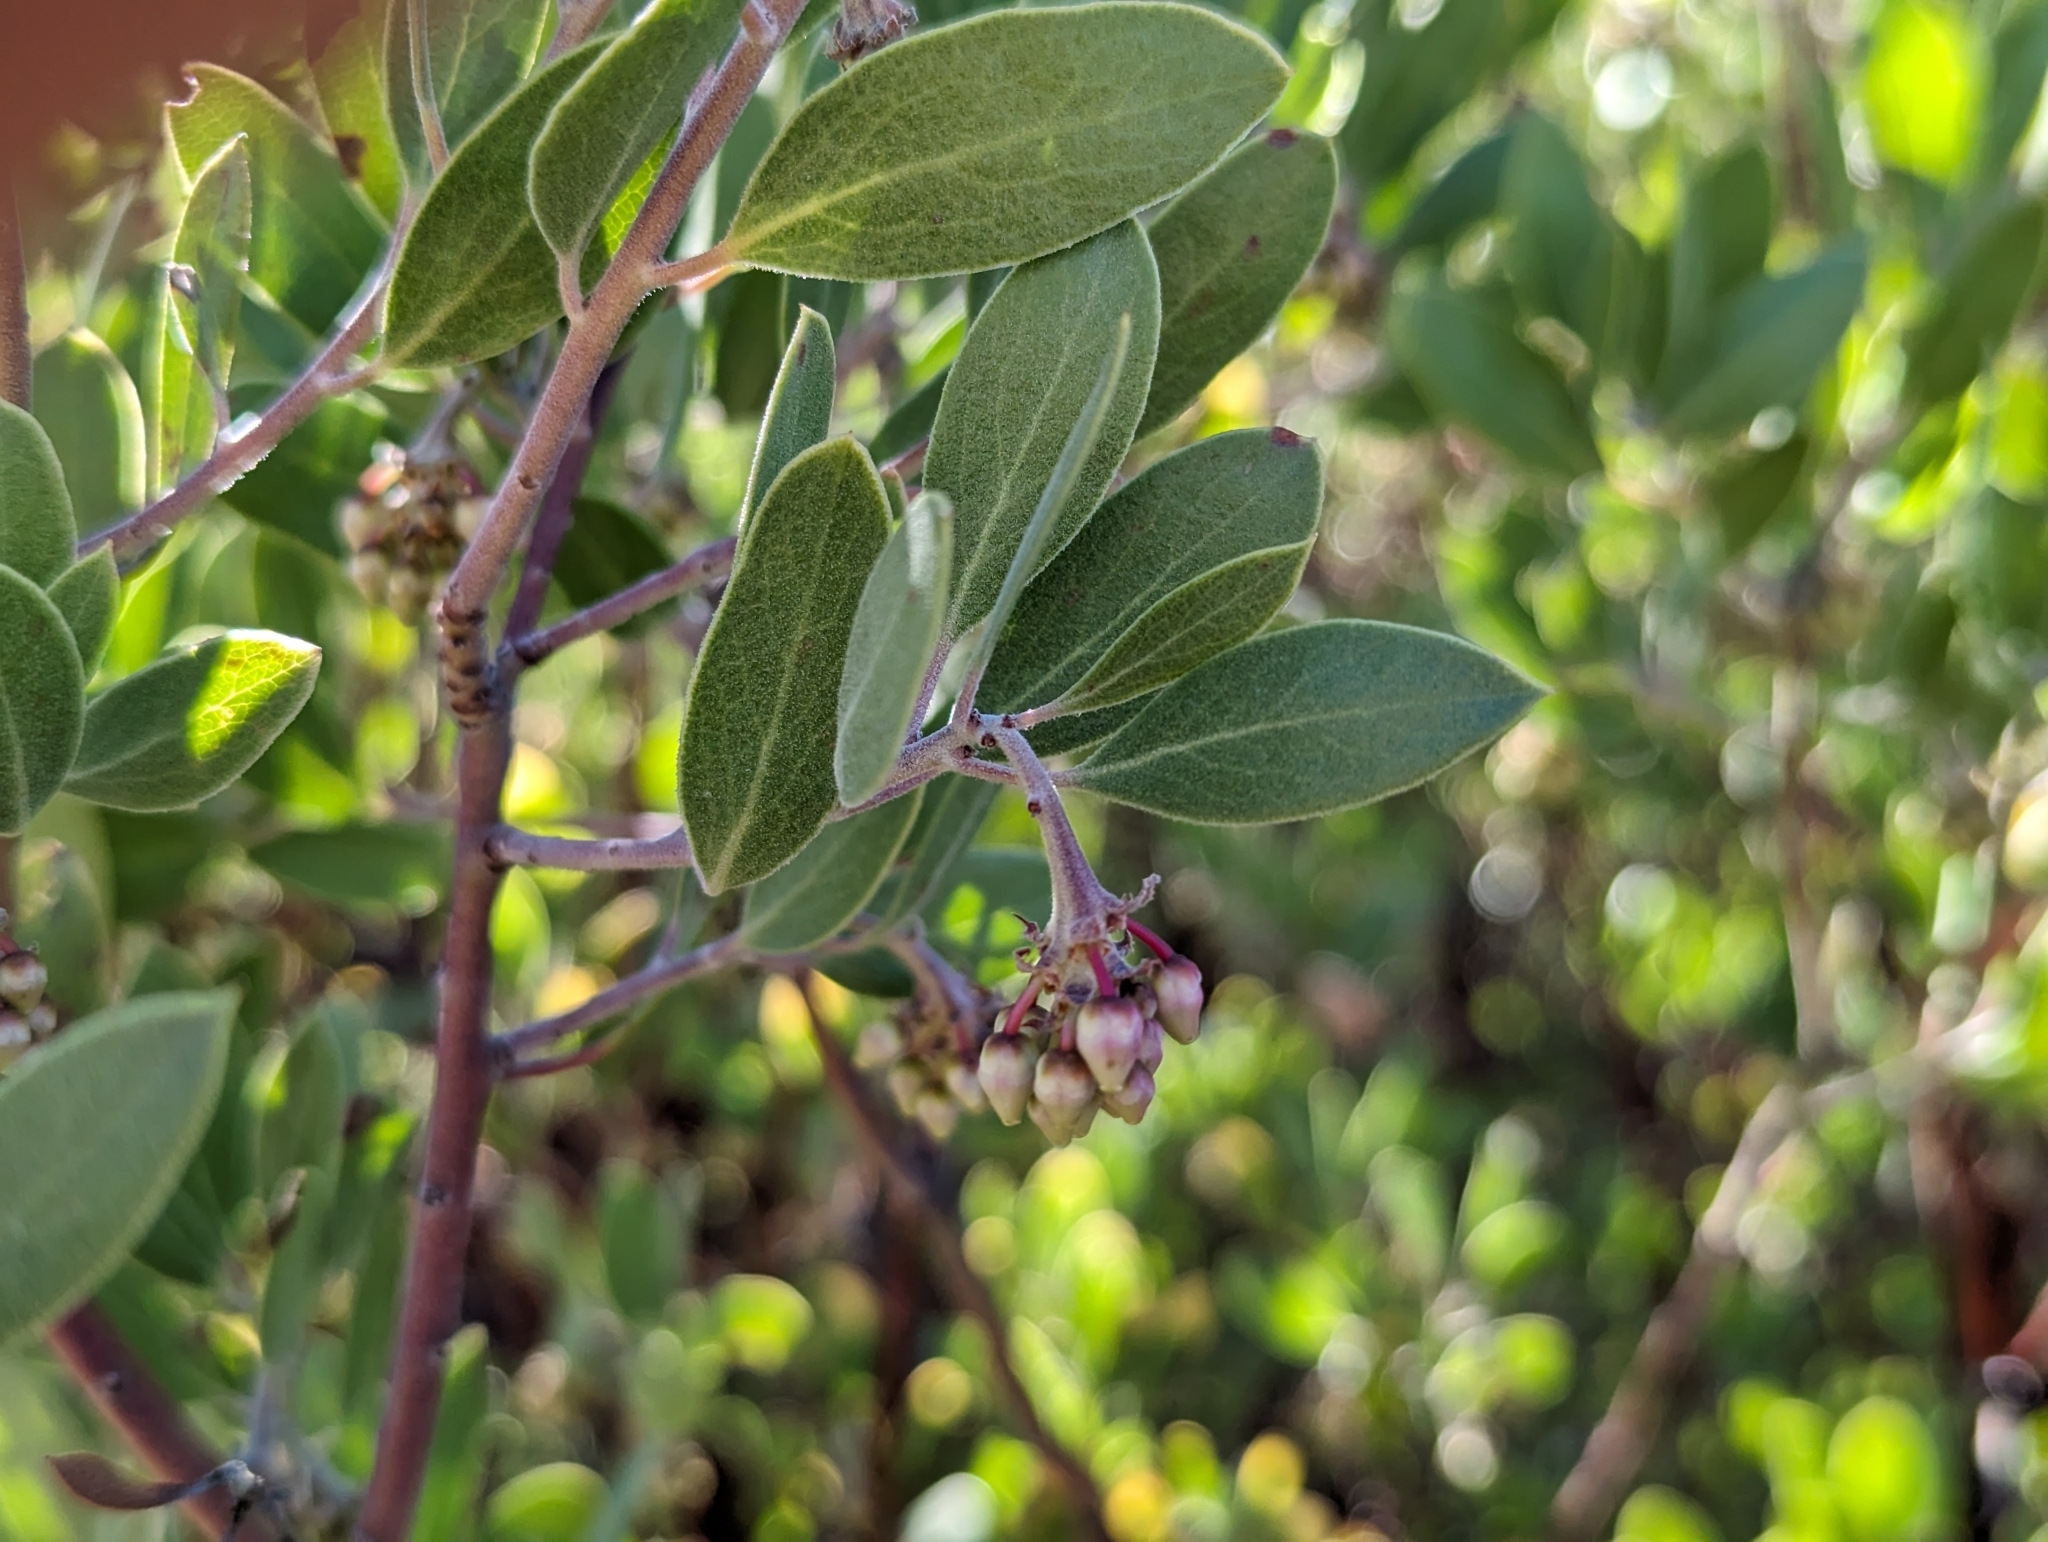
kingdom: Plantae
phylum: Tracheophyta
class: Magnoliopsida
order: Ericales
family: Ericaceae
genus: Arctostaphylos
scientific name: Arctostaphylos pungens
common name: Mexican manzanita
